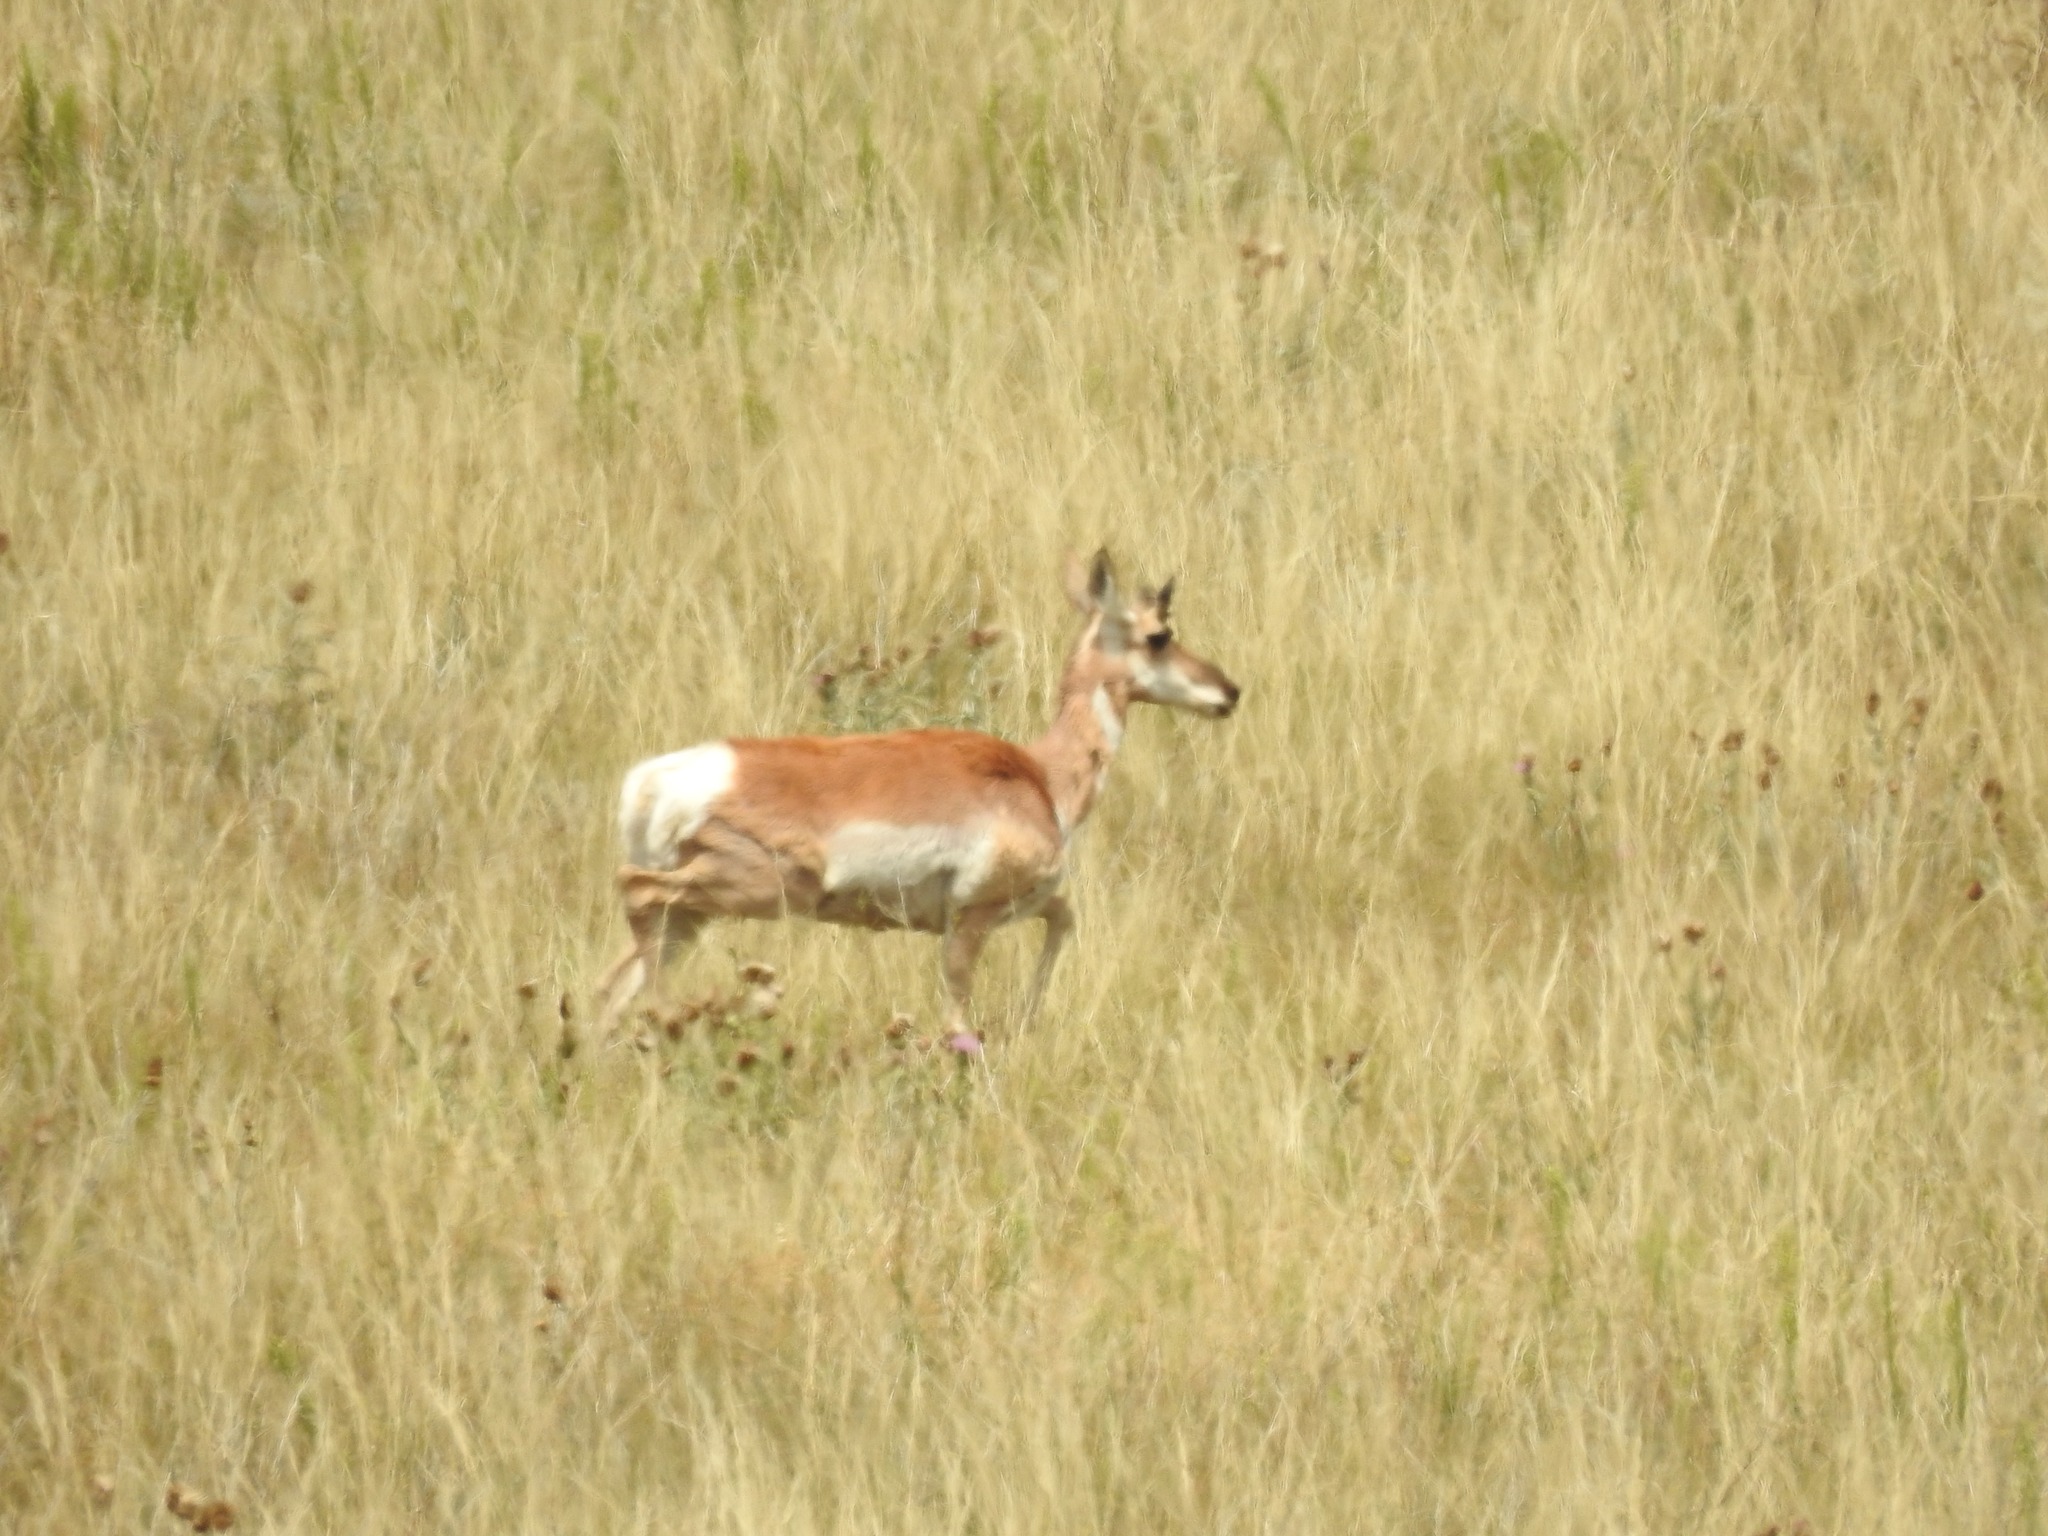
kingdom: Animalia
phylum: Chordata
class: Mammalia
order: Artiodactyla
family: Antilocapridae
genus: Antilocapra
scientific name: Antilocapra americana
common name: Pronghorn
